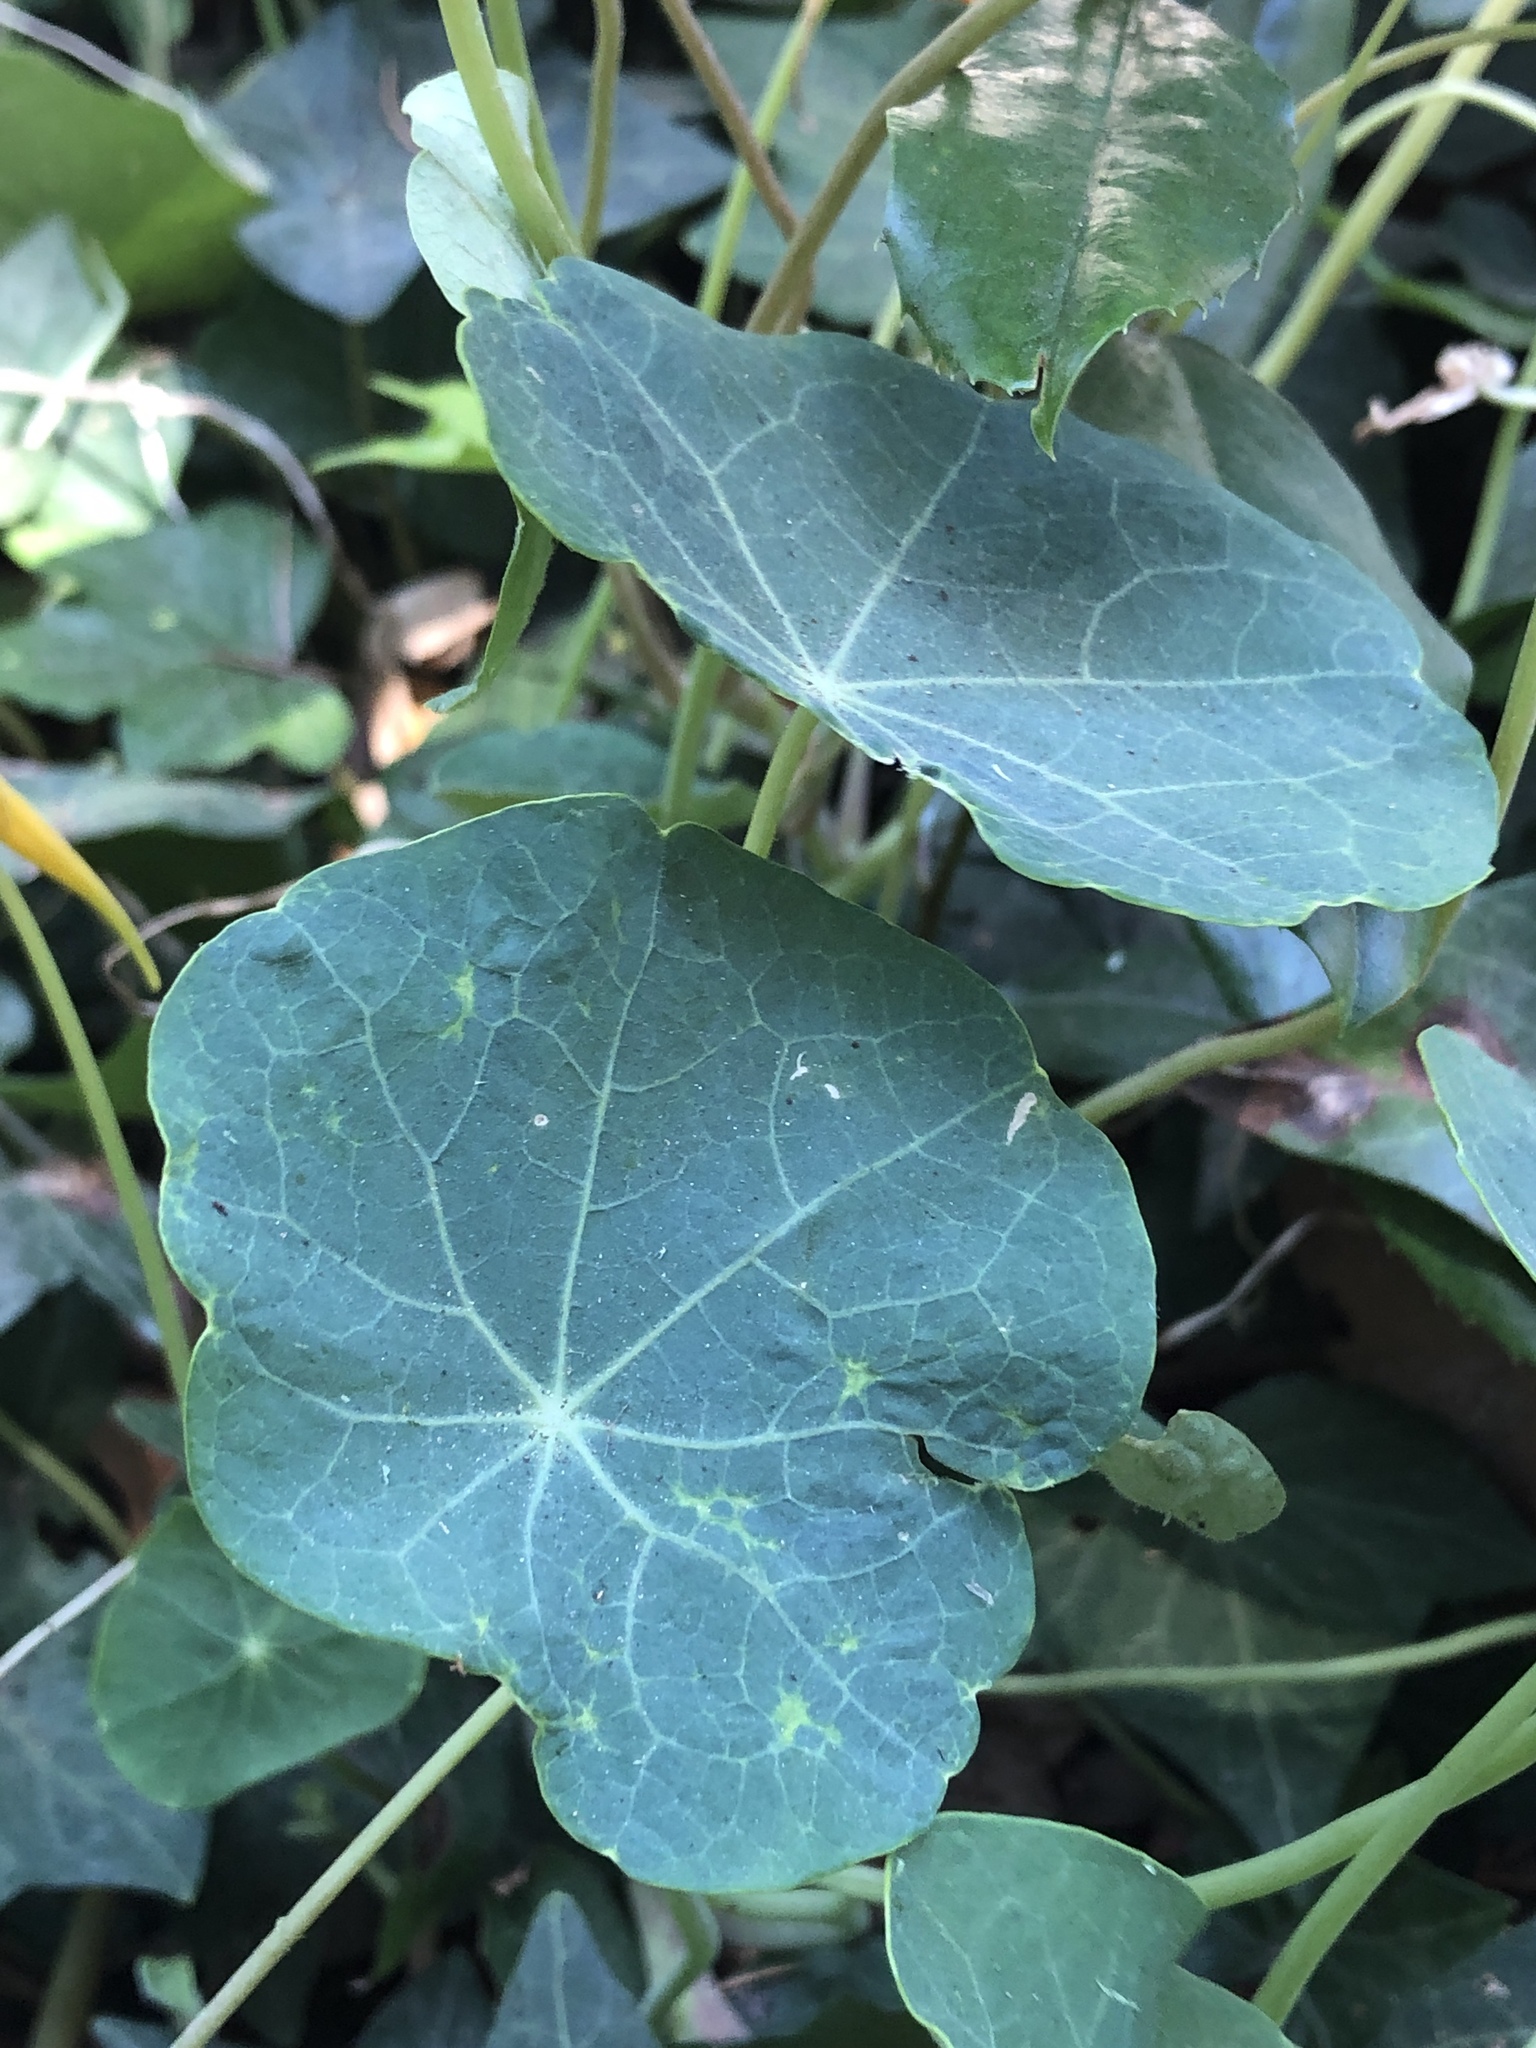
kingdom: Plantae
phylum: Tracheophyta
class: Magnoliopsida
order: Brassicales
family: Tropaeolaceae
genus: Tropaeolum
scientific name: Tropaeolum majus
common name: Nasturtium
